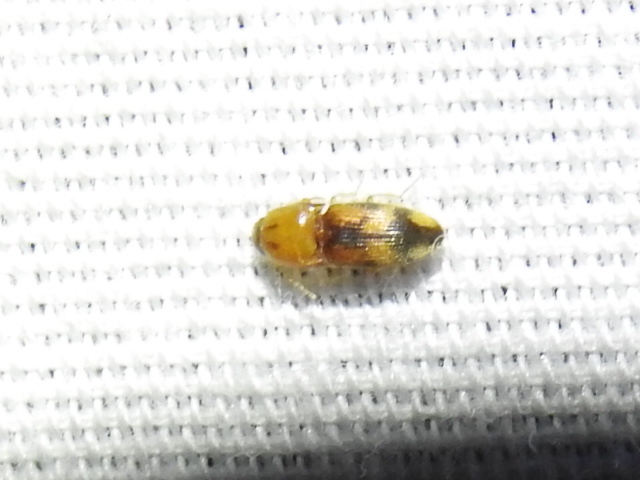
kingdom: Animalia
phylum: Arthropoda
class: Insecta
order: Coleoptera
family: Elateridae
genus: Monocrepidius
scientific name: Monocrepidius
